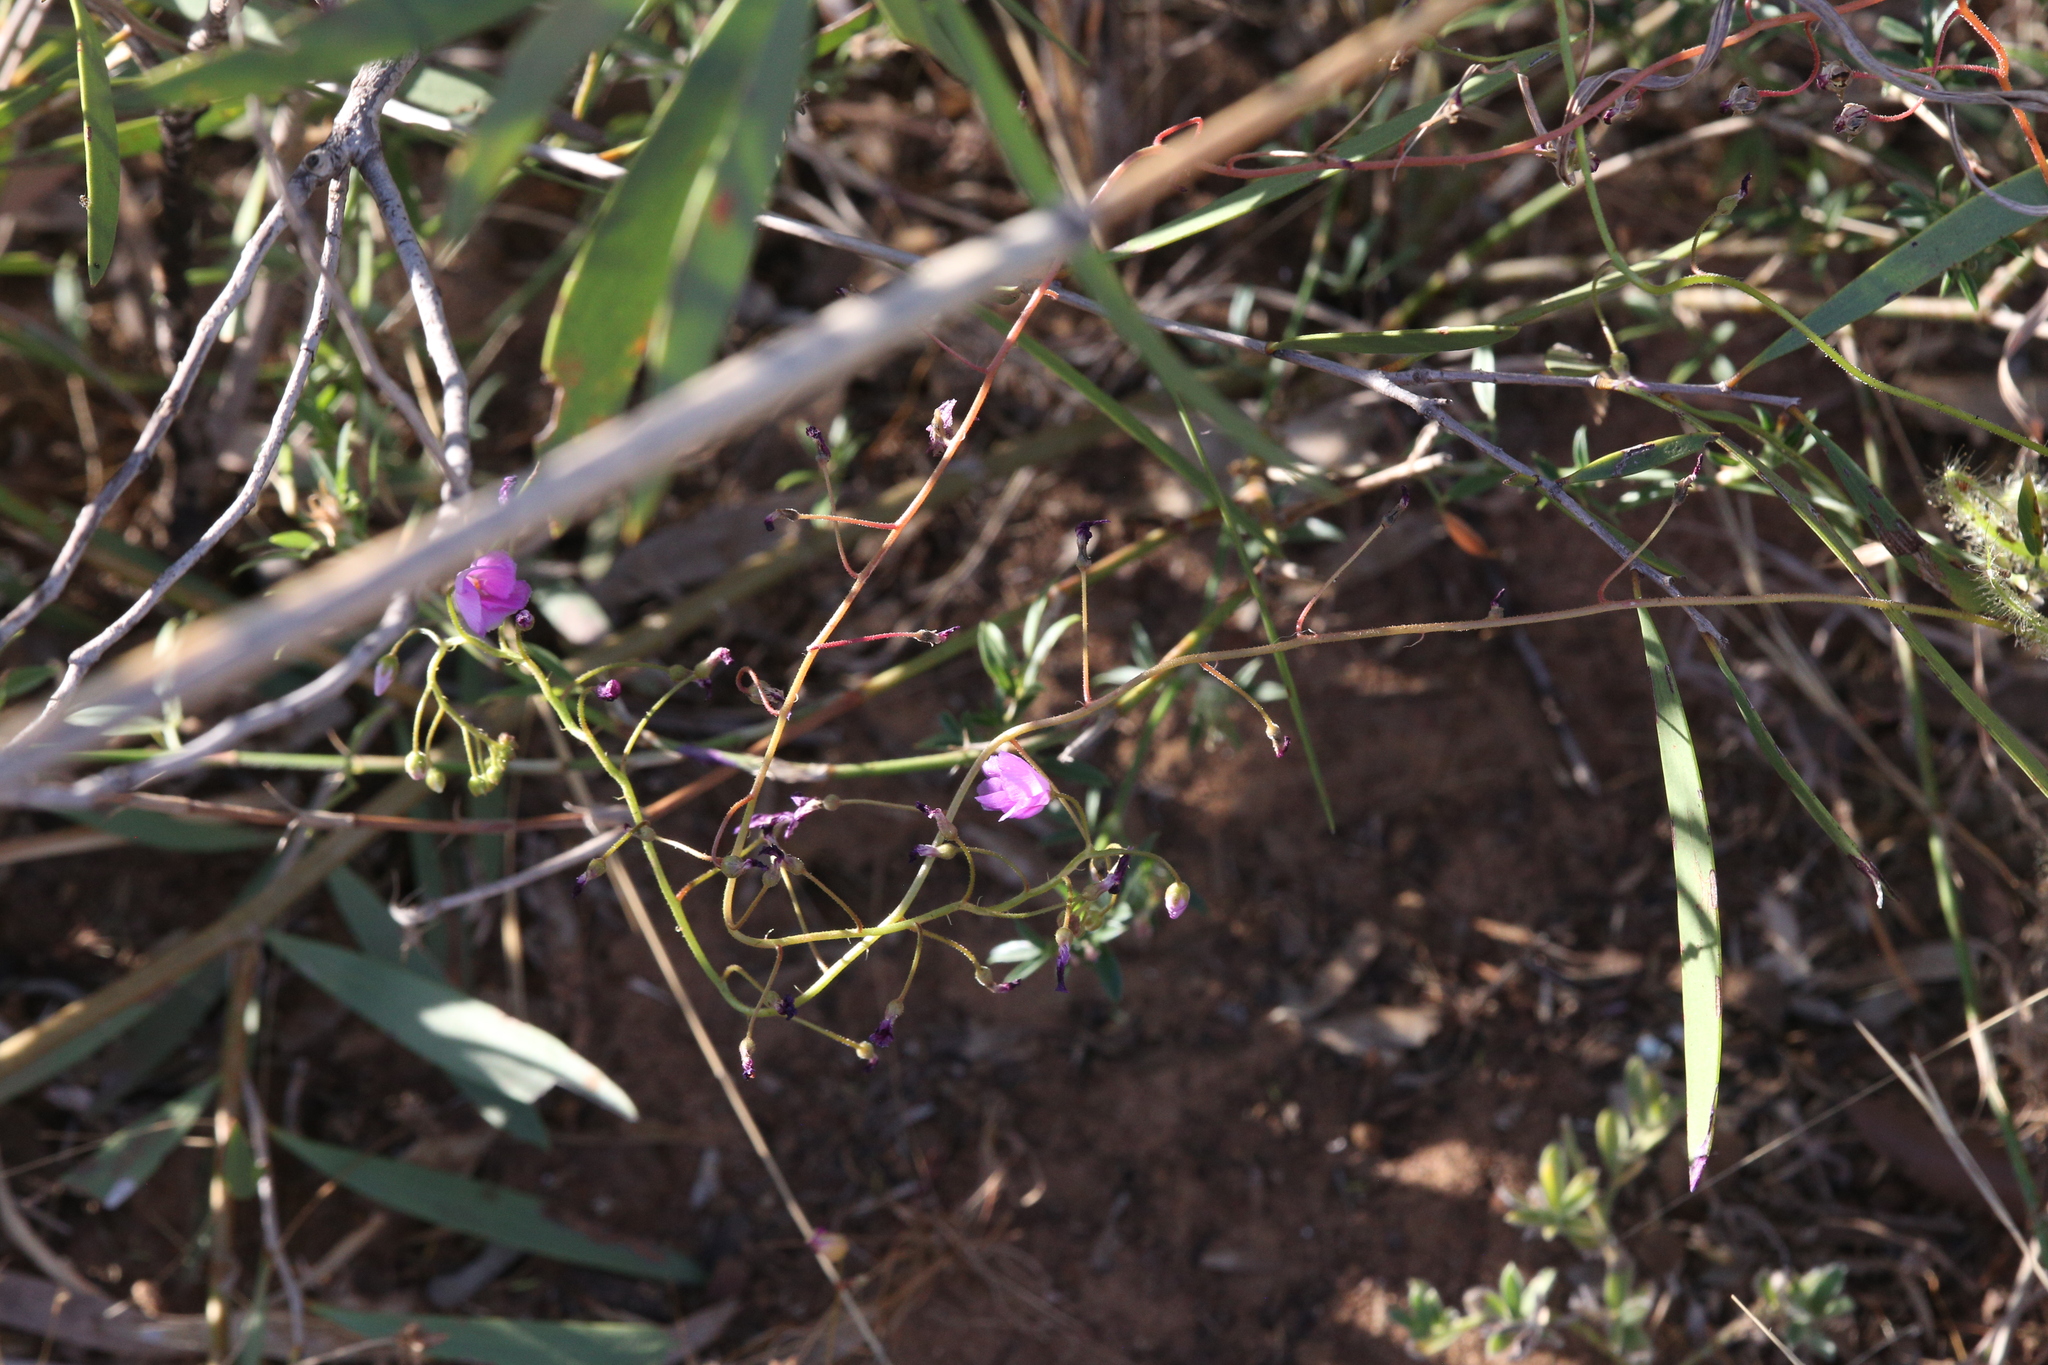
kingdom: Plantae
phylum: Tracheophyta
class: Magnoliopsida
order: Caryophyllales
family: Droseraceae
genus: Drosera
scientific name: Drosera margaritacea
